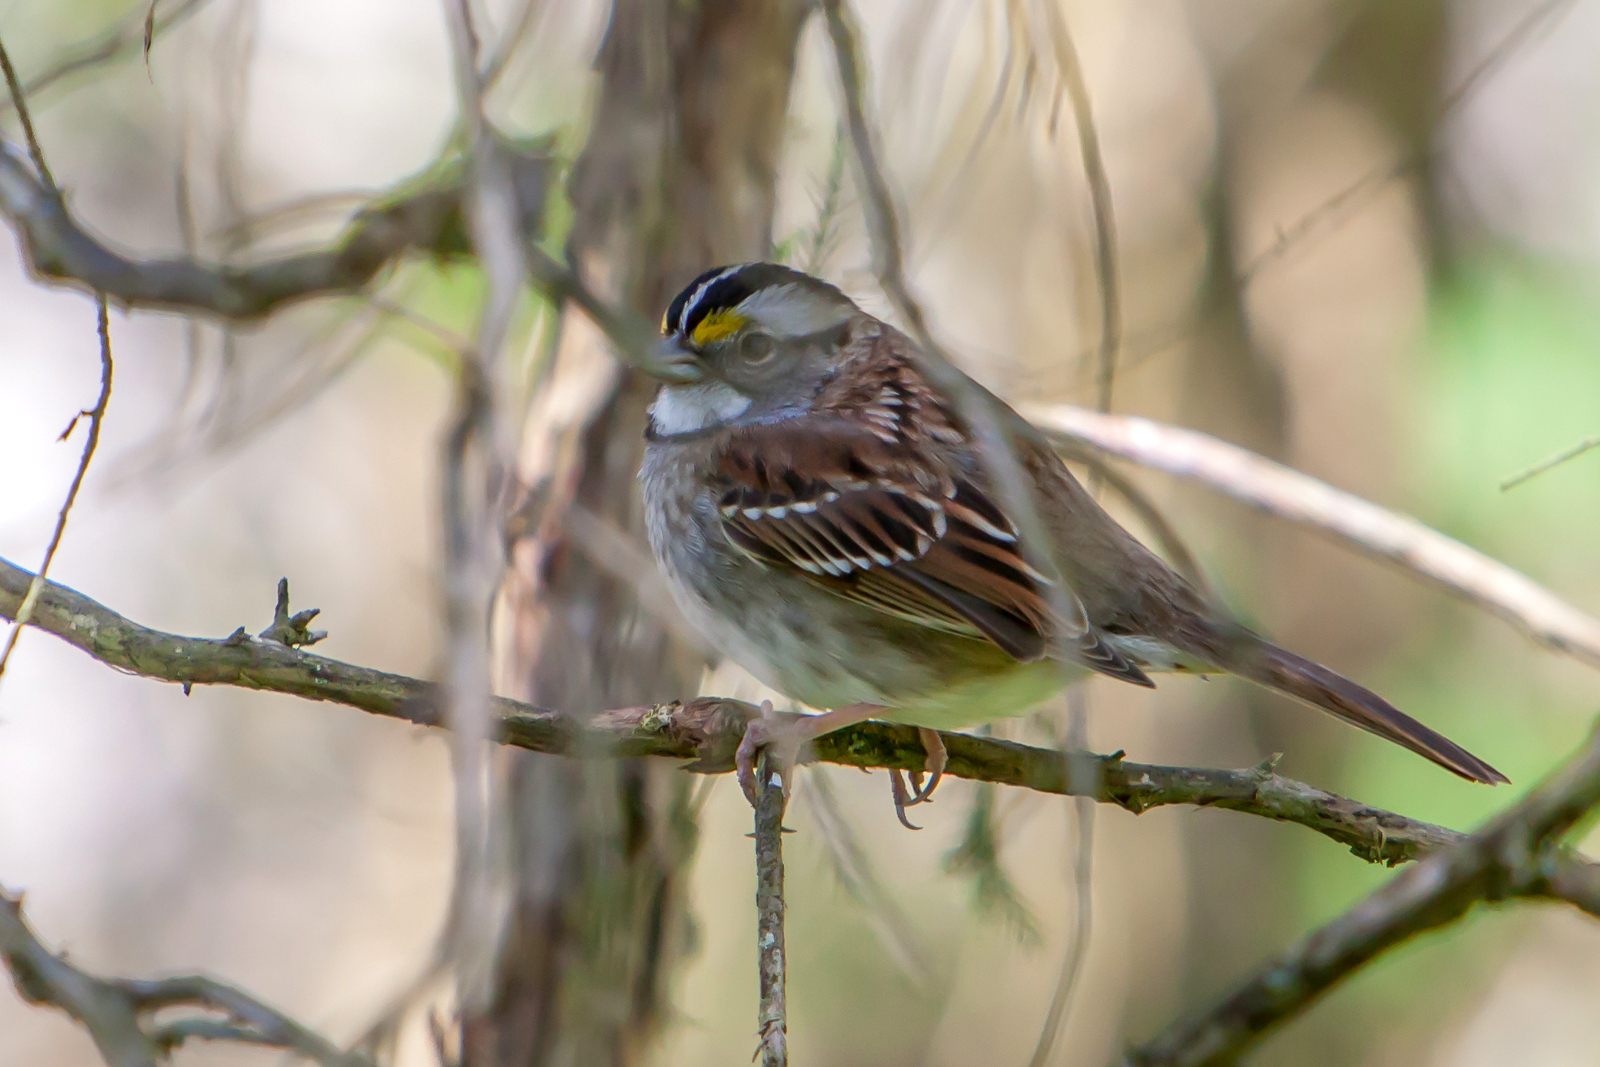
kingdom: Animalia
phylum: Chordata
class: Aves
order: Passeriformes
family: Passerellidae
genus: Zonotrichia
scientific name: Zonotrichia albicollis
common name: White-throated sparrow
